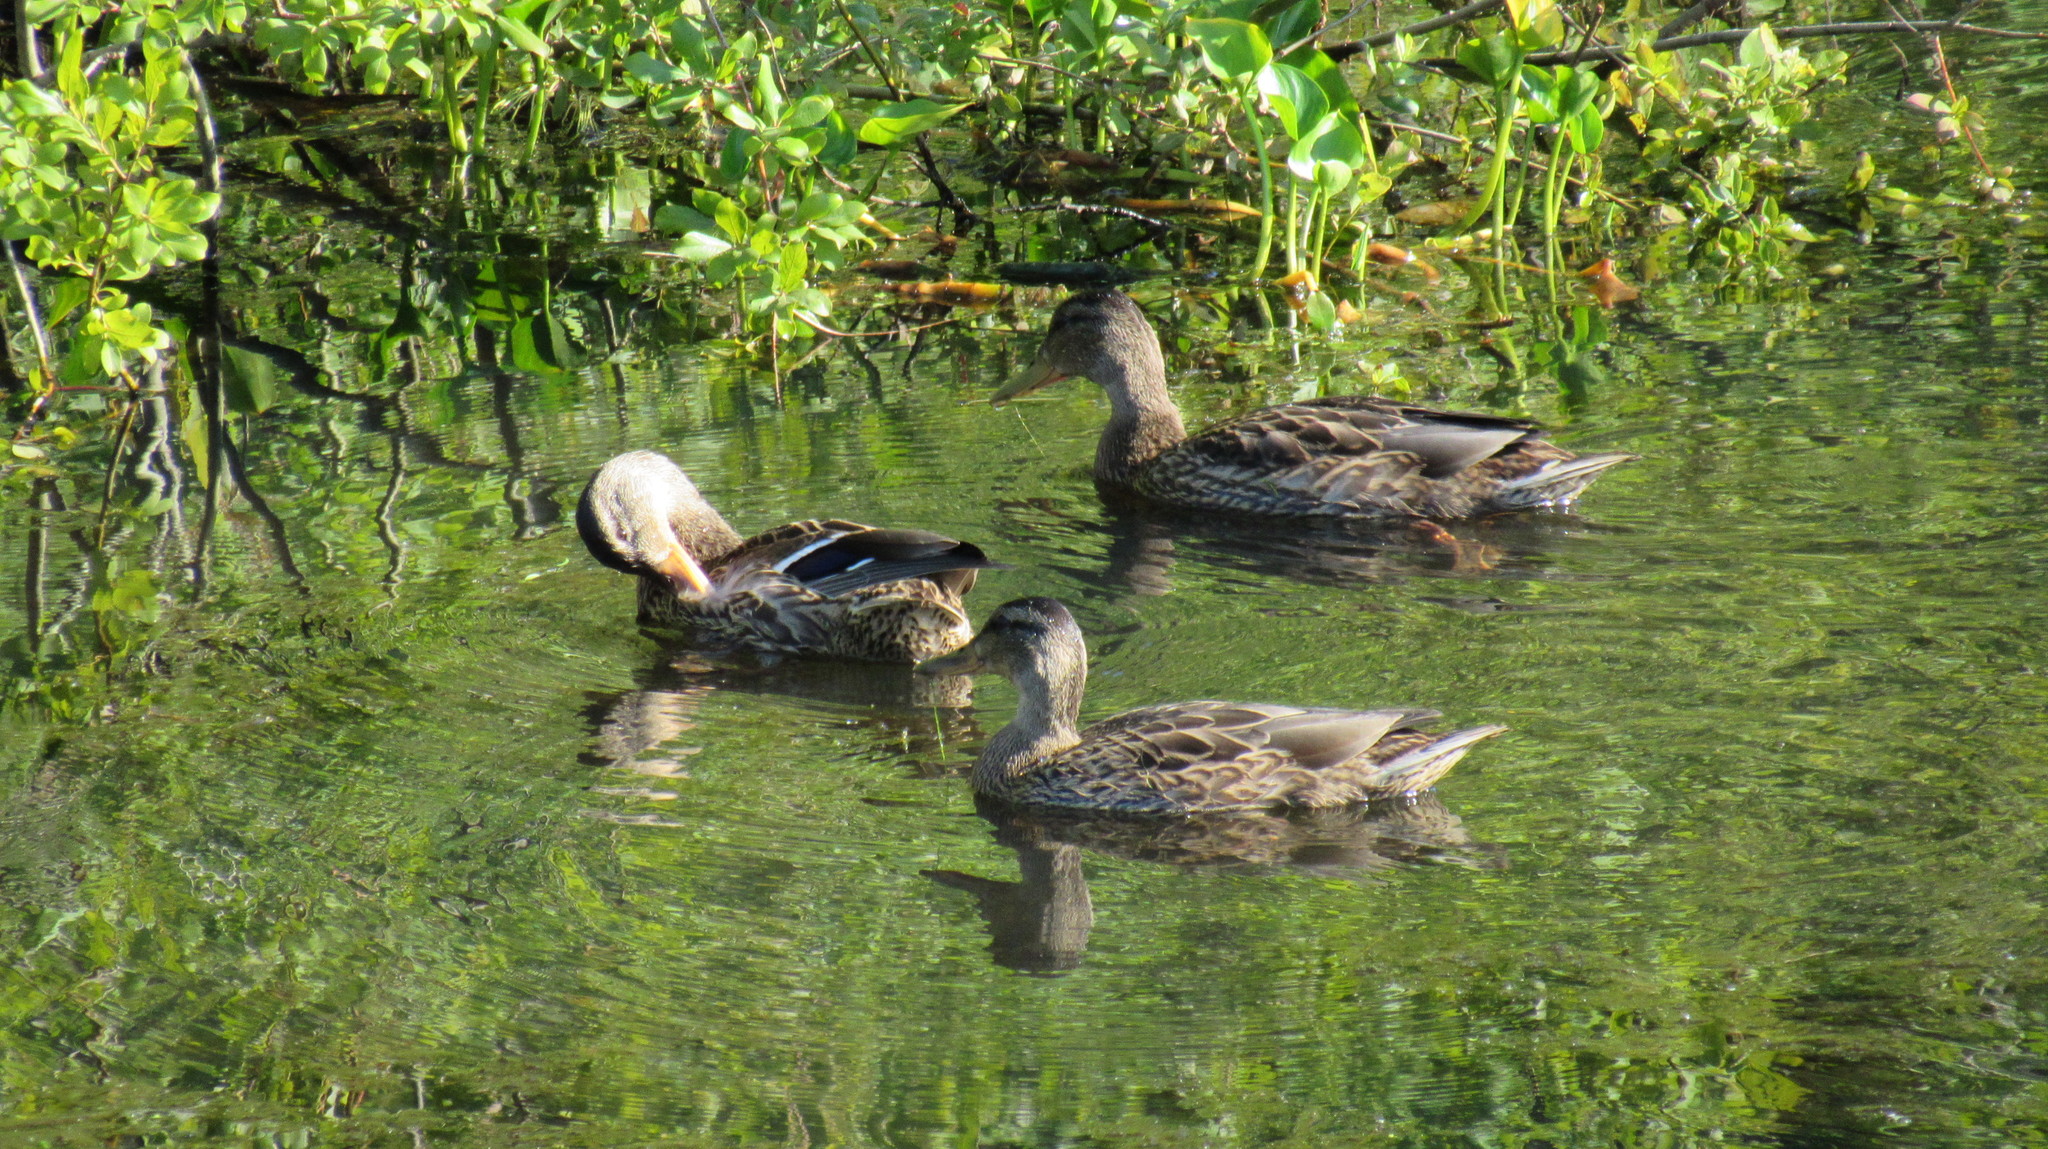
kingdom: Animalia
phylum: Chordata
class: Aves
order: Anseriformes
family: Anatidae
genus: Anas
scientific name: Anas platyrhynchos
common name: Mallard
